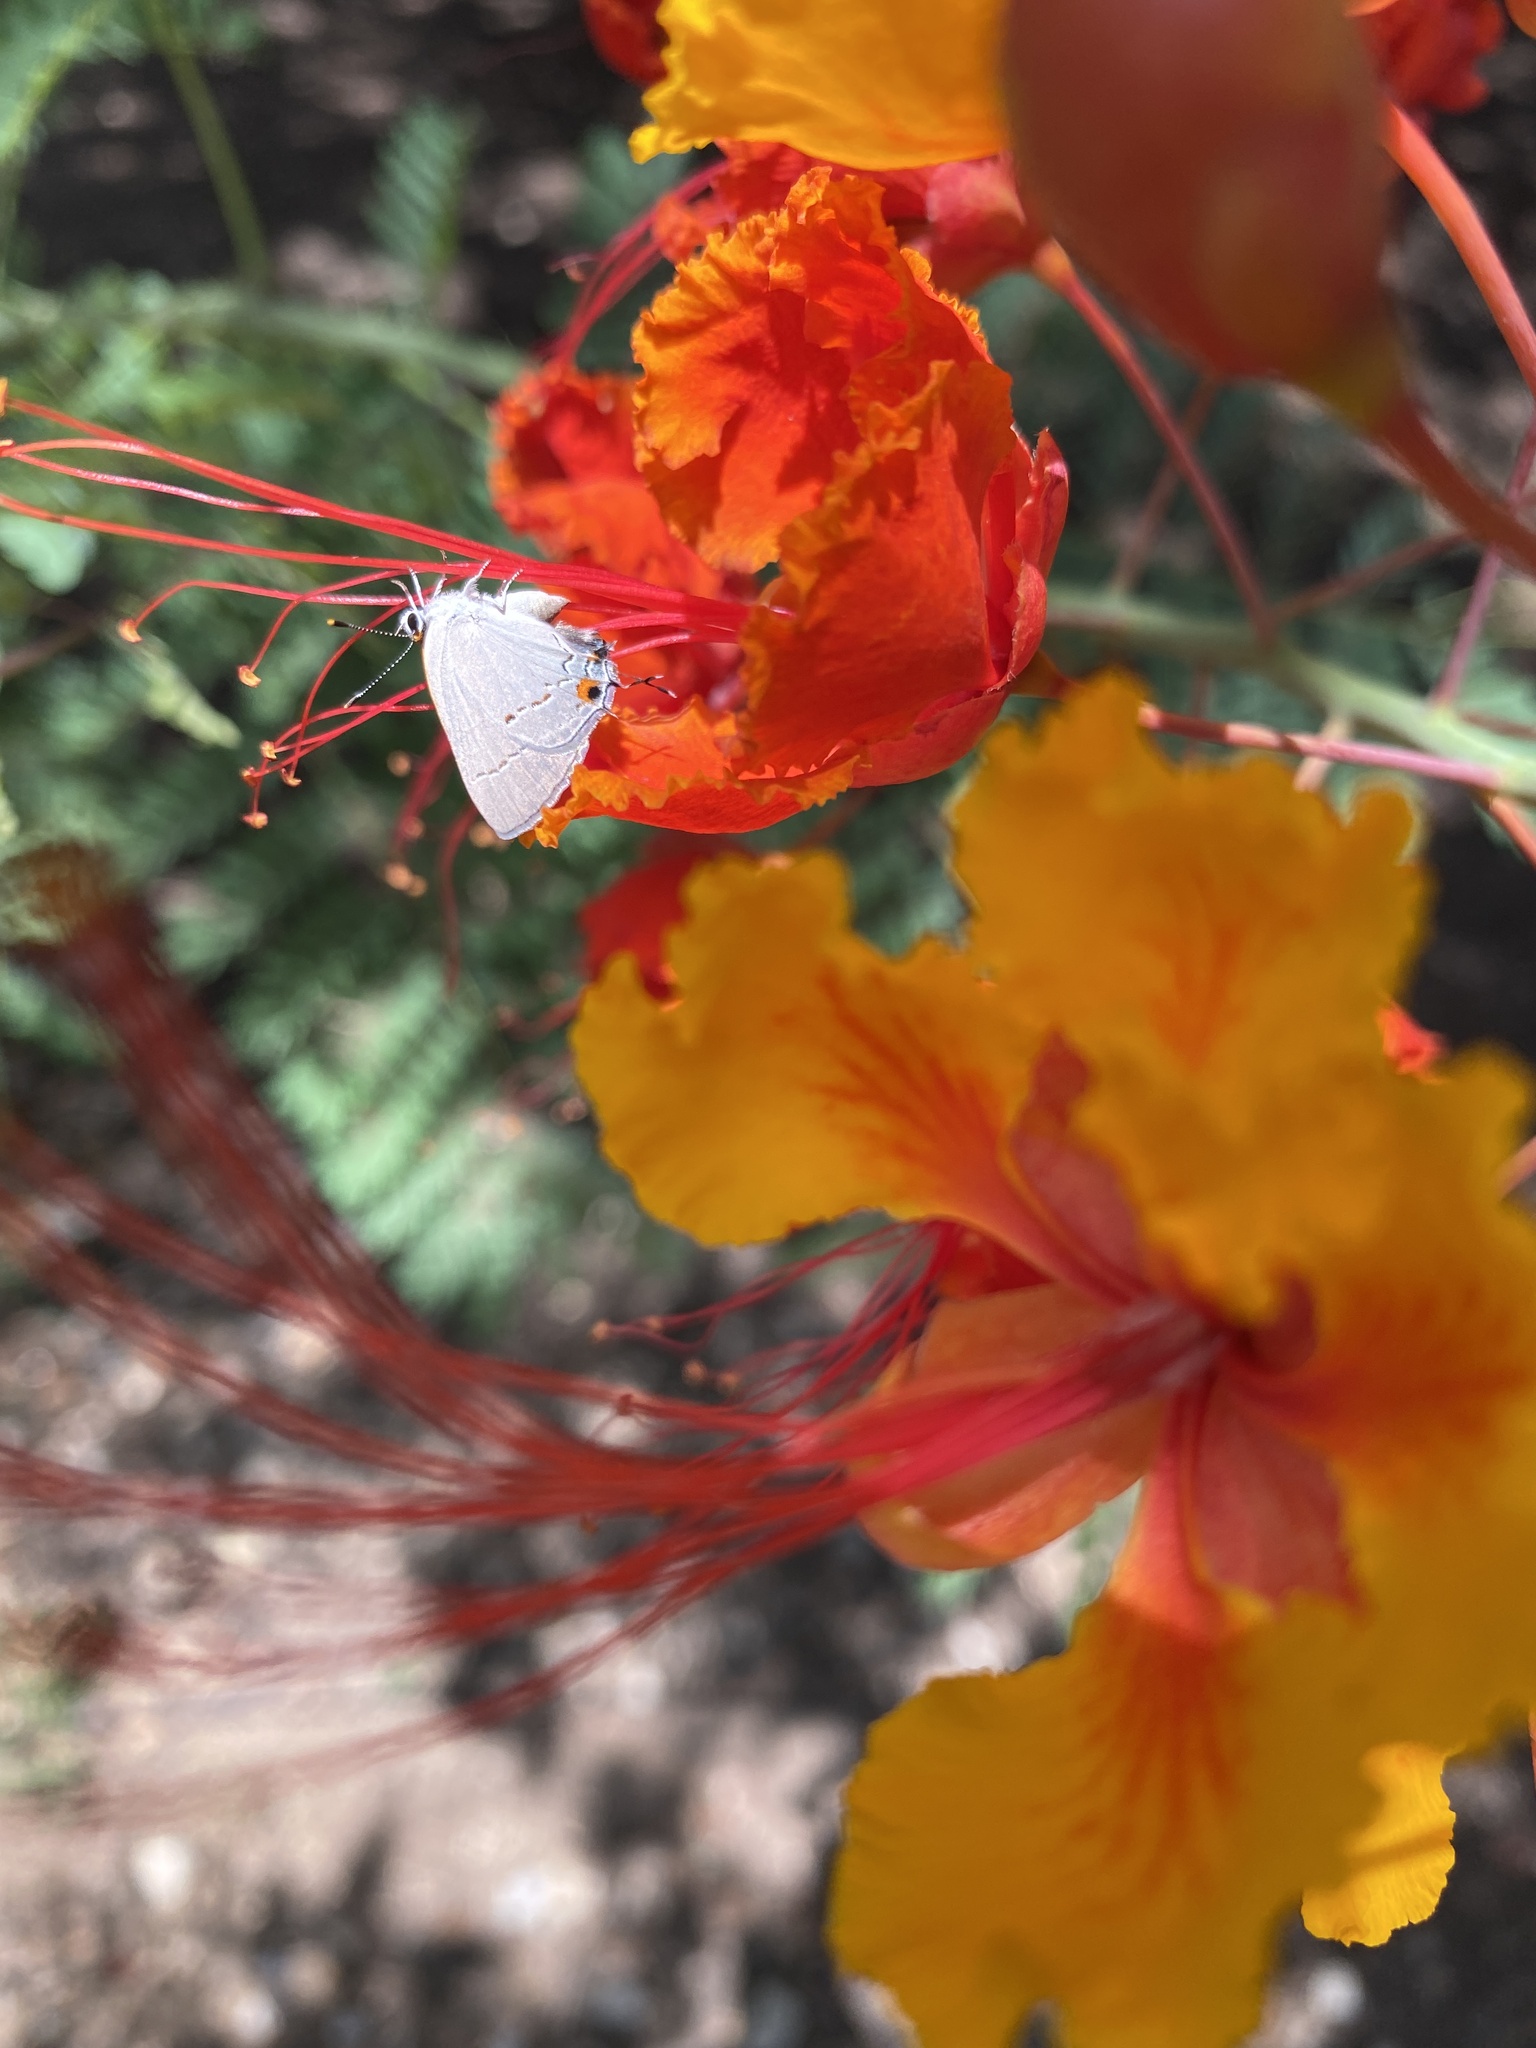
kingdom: Animalia
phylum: Arthropoda
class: Insecta
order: Lepidoptera
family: Lycaenidae
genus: Strymon
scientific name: Strymon melinus
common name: Gray hairstreak
